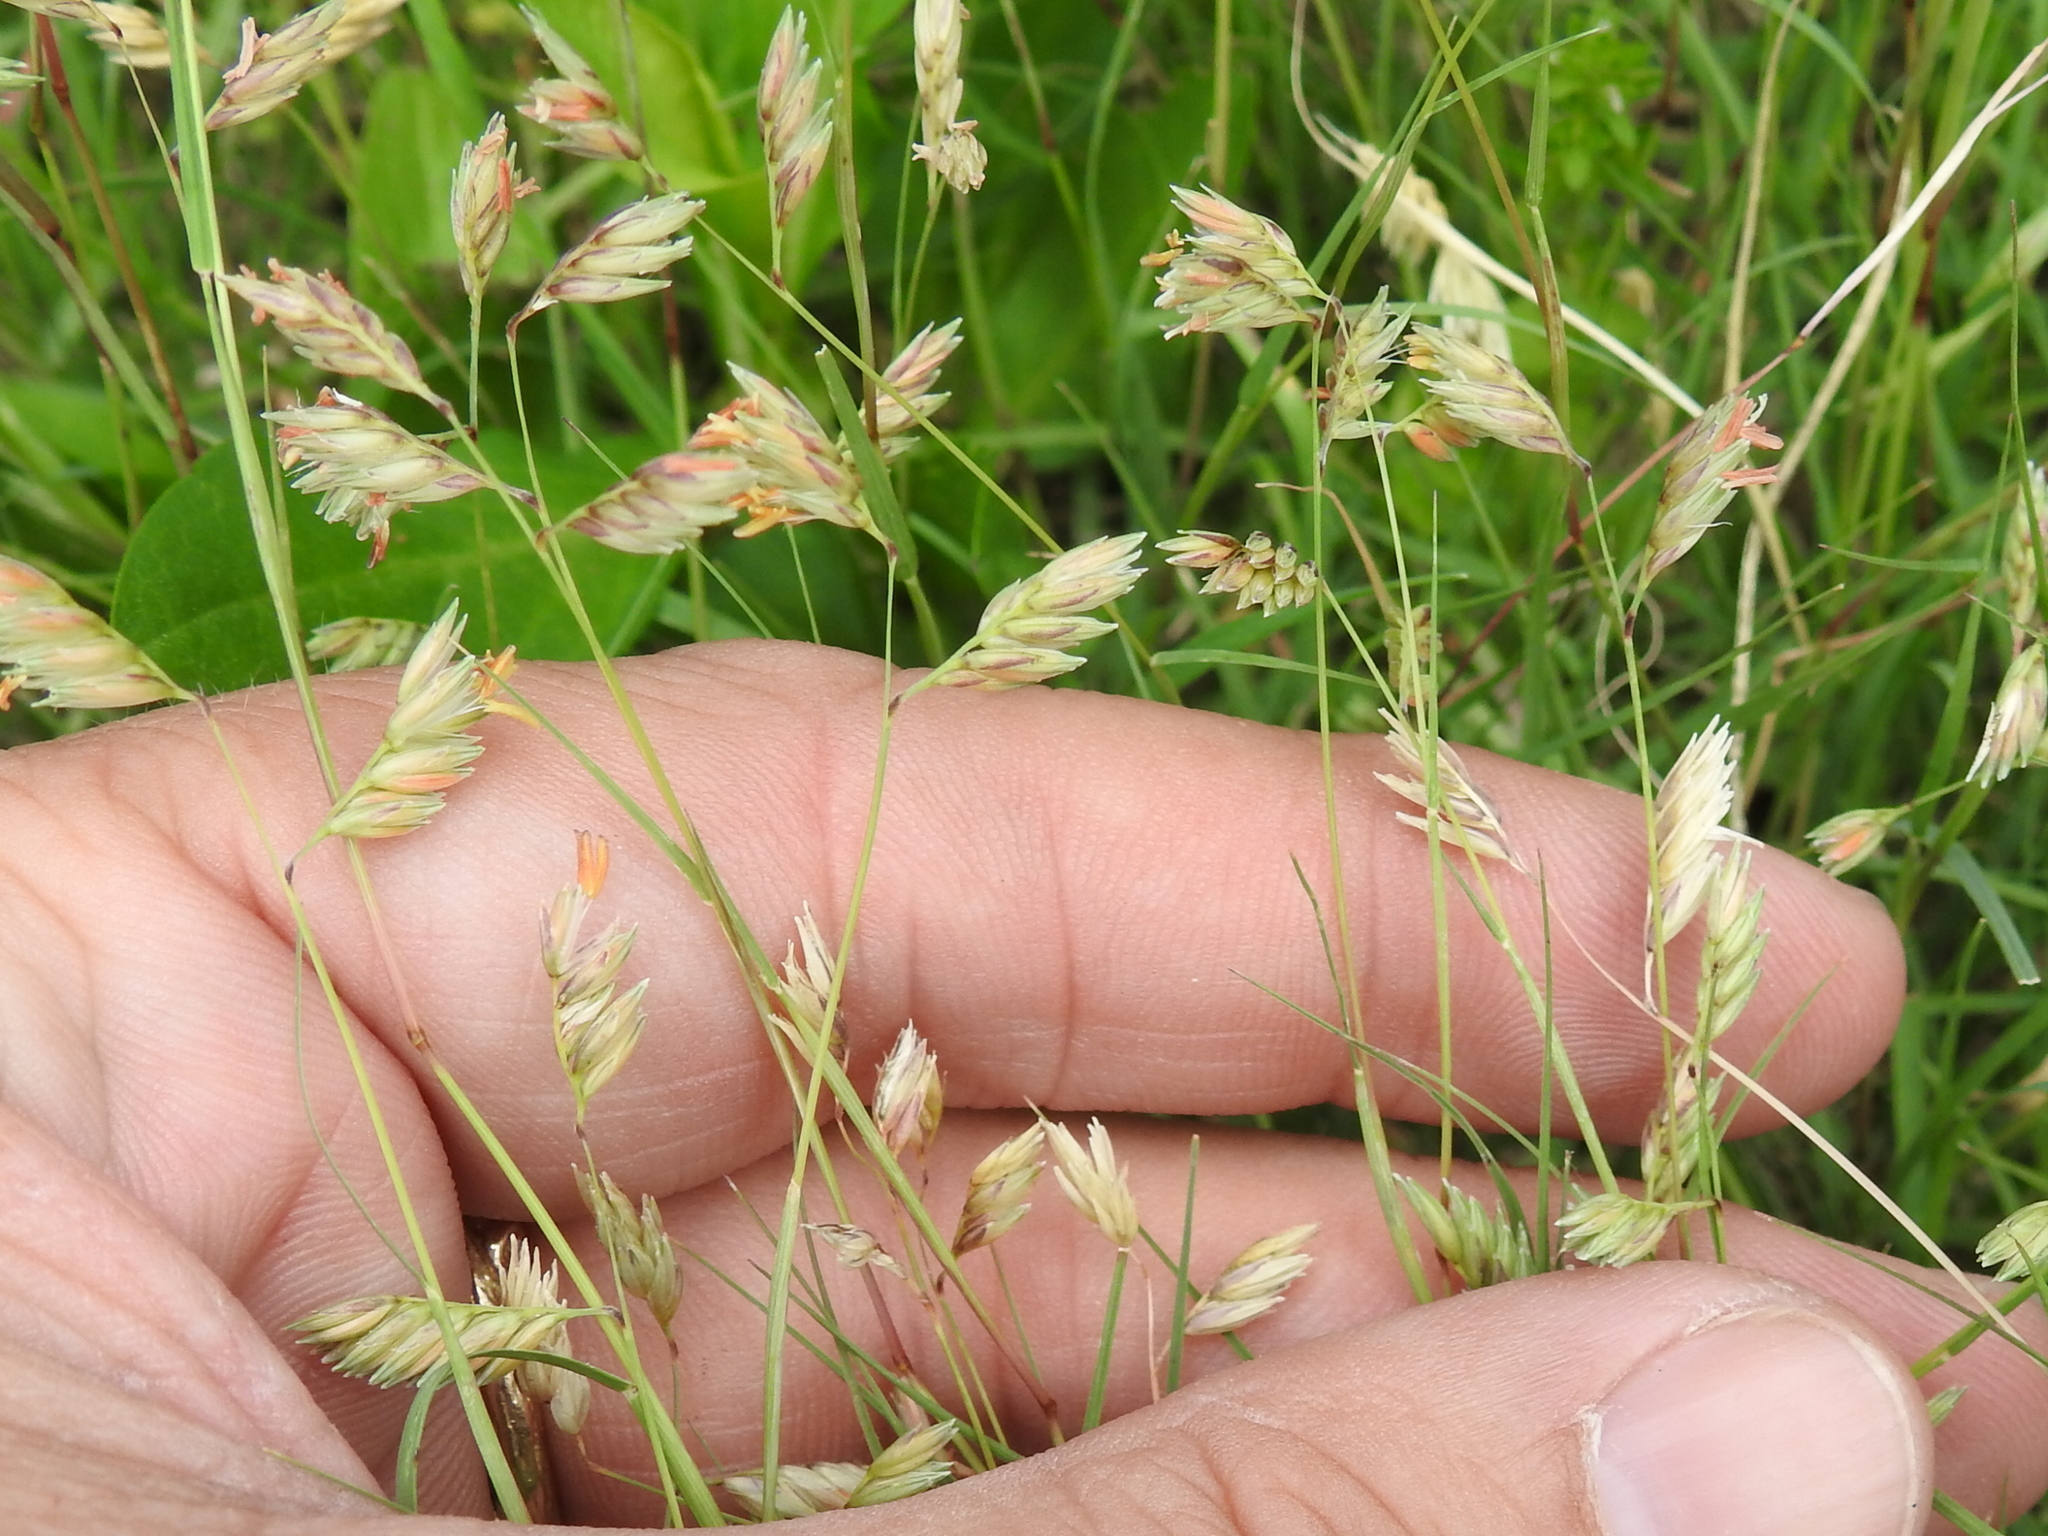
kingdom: Plantae
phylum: Tracheophyta
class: Liliopsida
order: Poales
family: Poaceae
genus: Bouteloua
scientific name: Bouteloua dactyloides
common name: Buffalo grass
